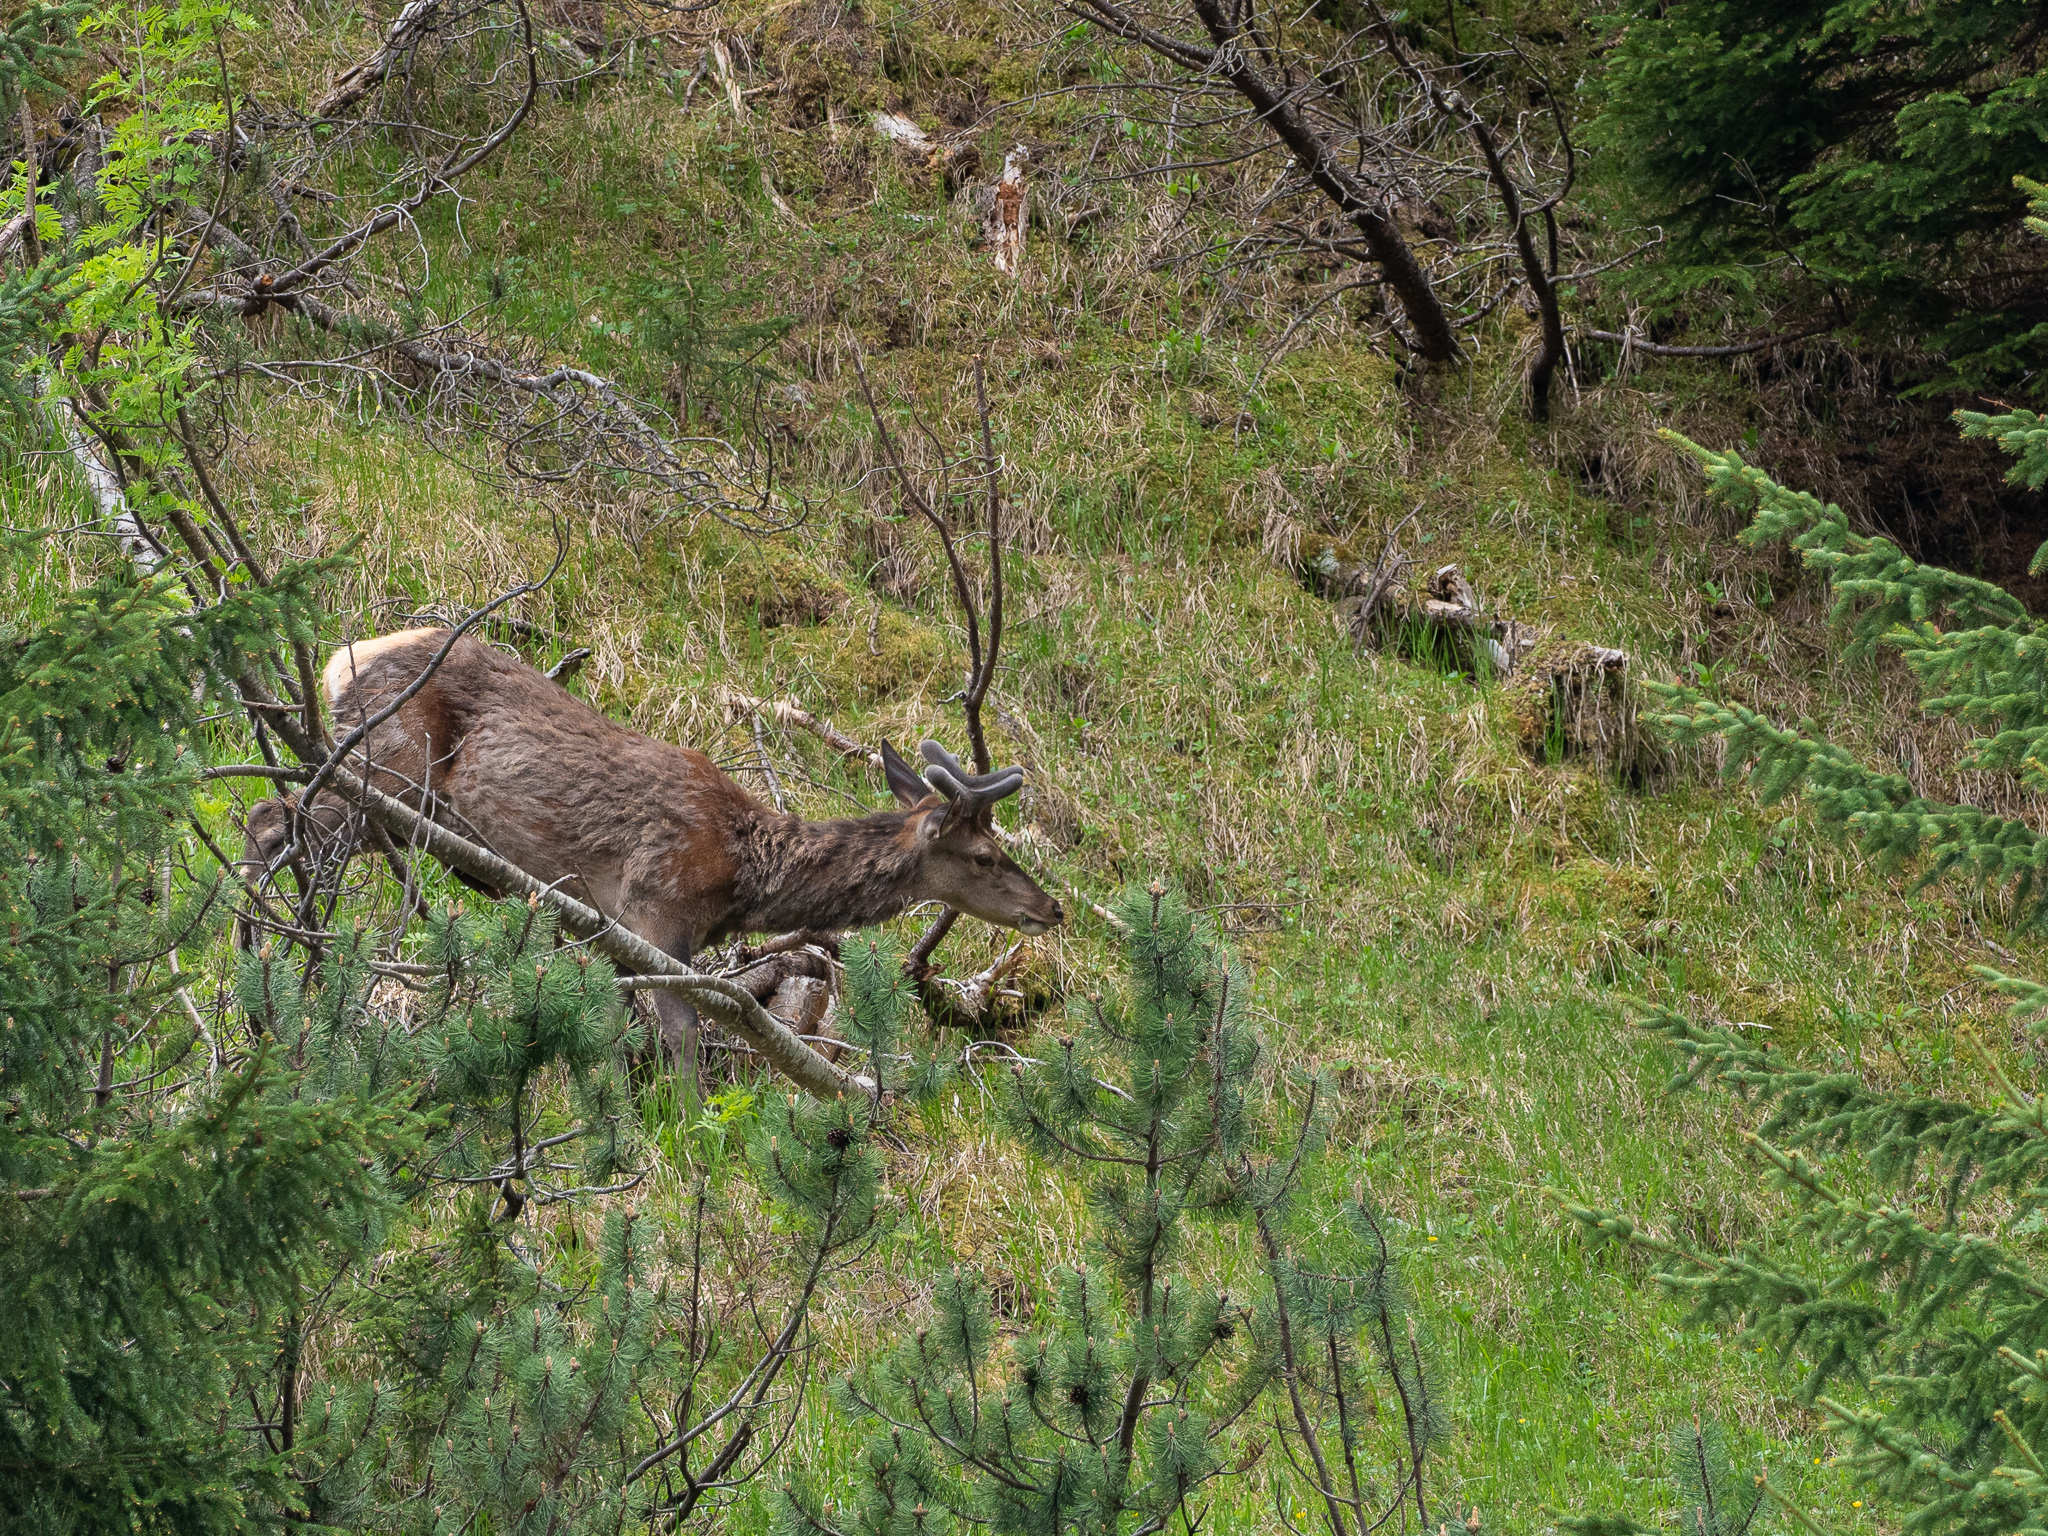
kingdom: Animalia
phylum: Chordata
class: Mammalia
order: Artiodactyla
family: Cervidae
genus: Cervus
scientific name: Cervus elaphus
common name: Red deer
